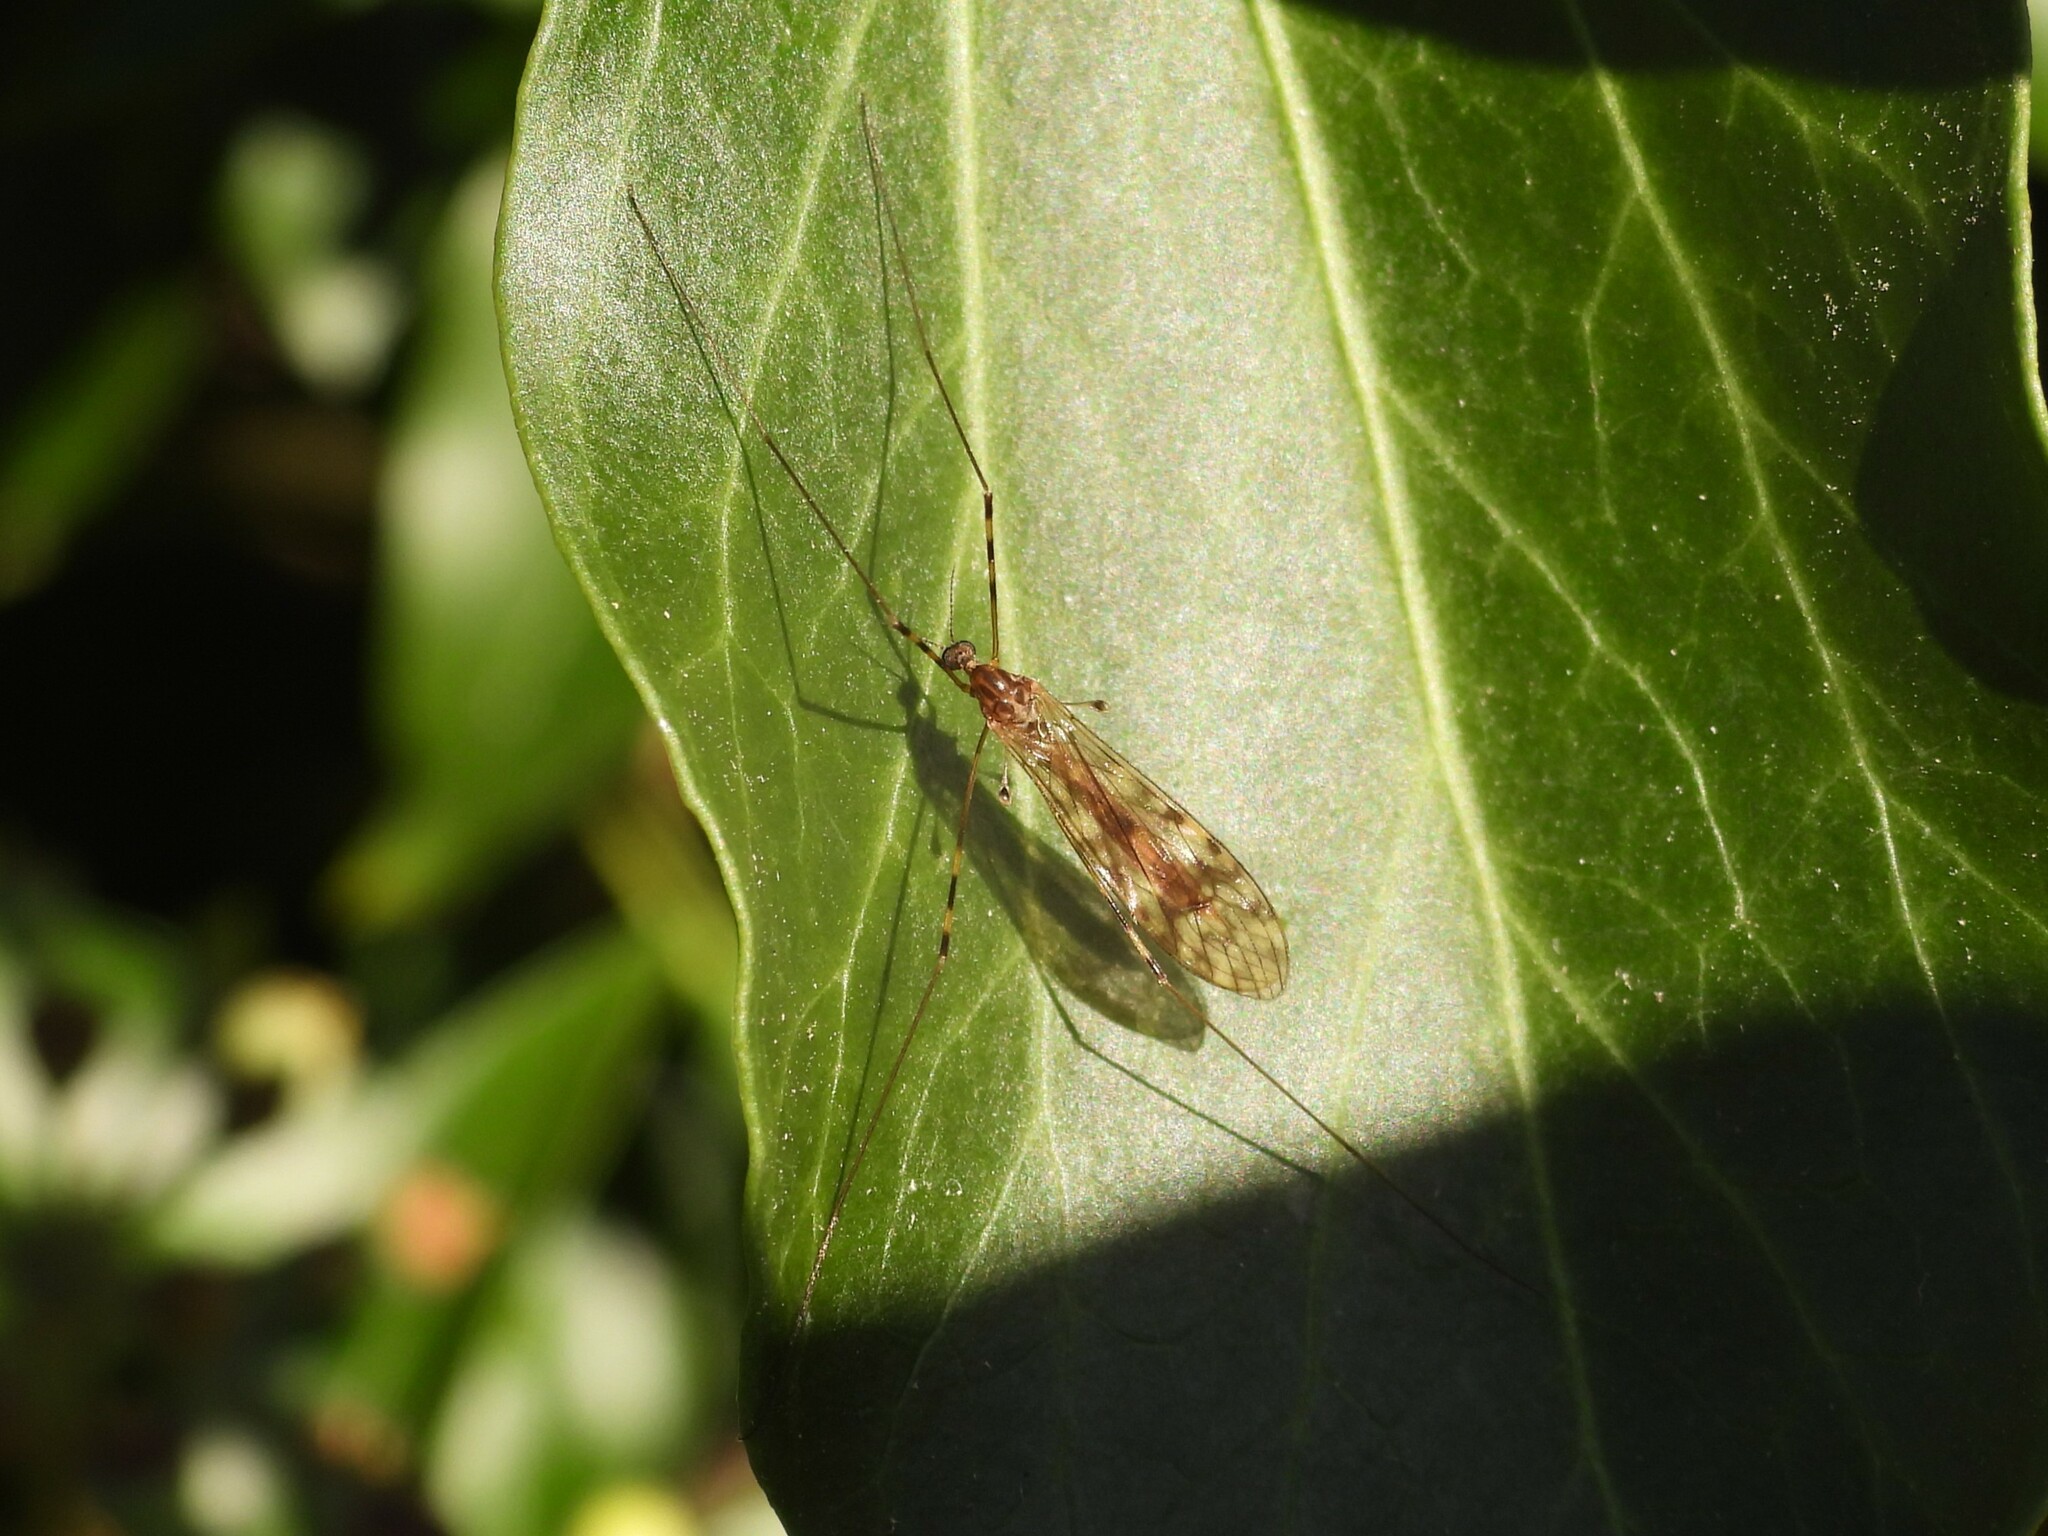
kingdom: Animalia
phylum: Arthropoda
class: Insecta
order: Diptera
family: Limoniidae
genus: Limonia
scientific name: Limonia nubeculosa
